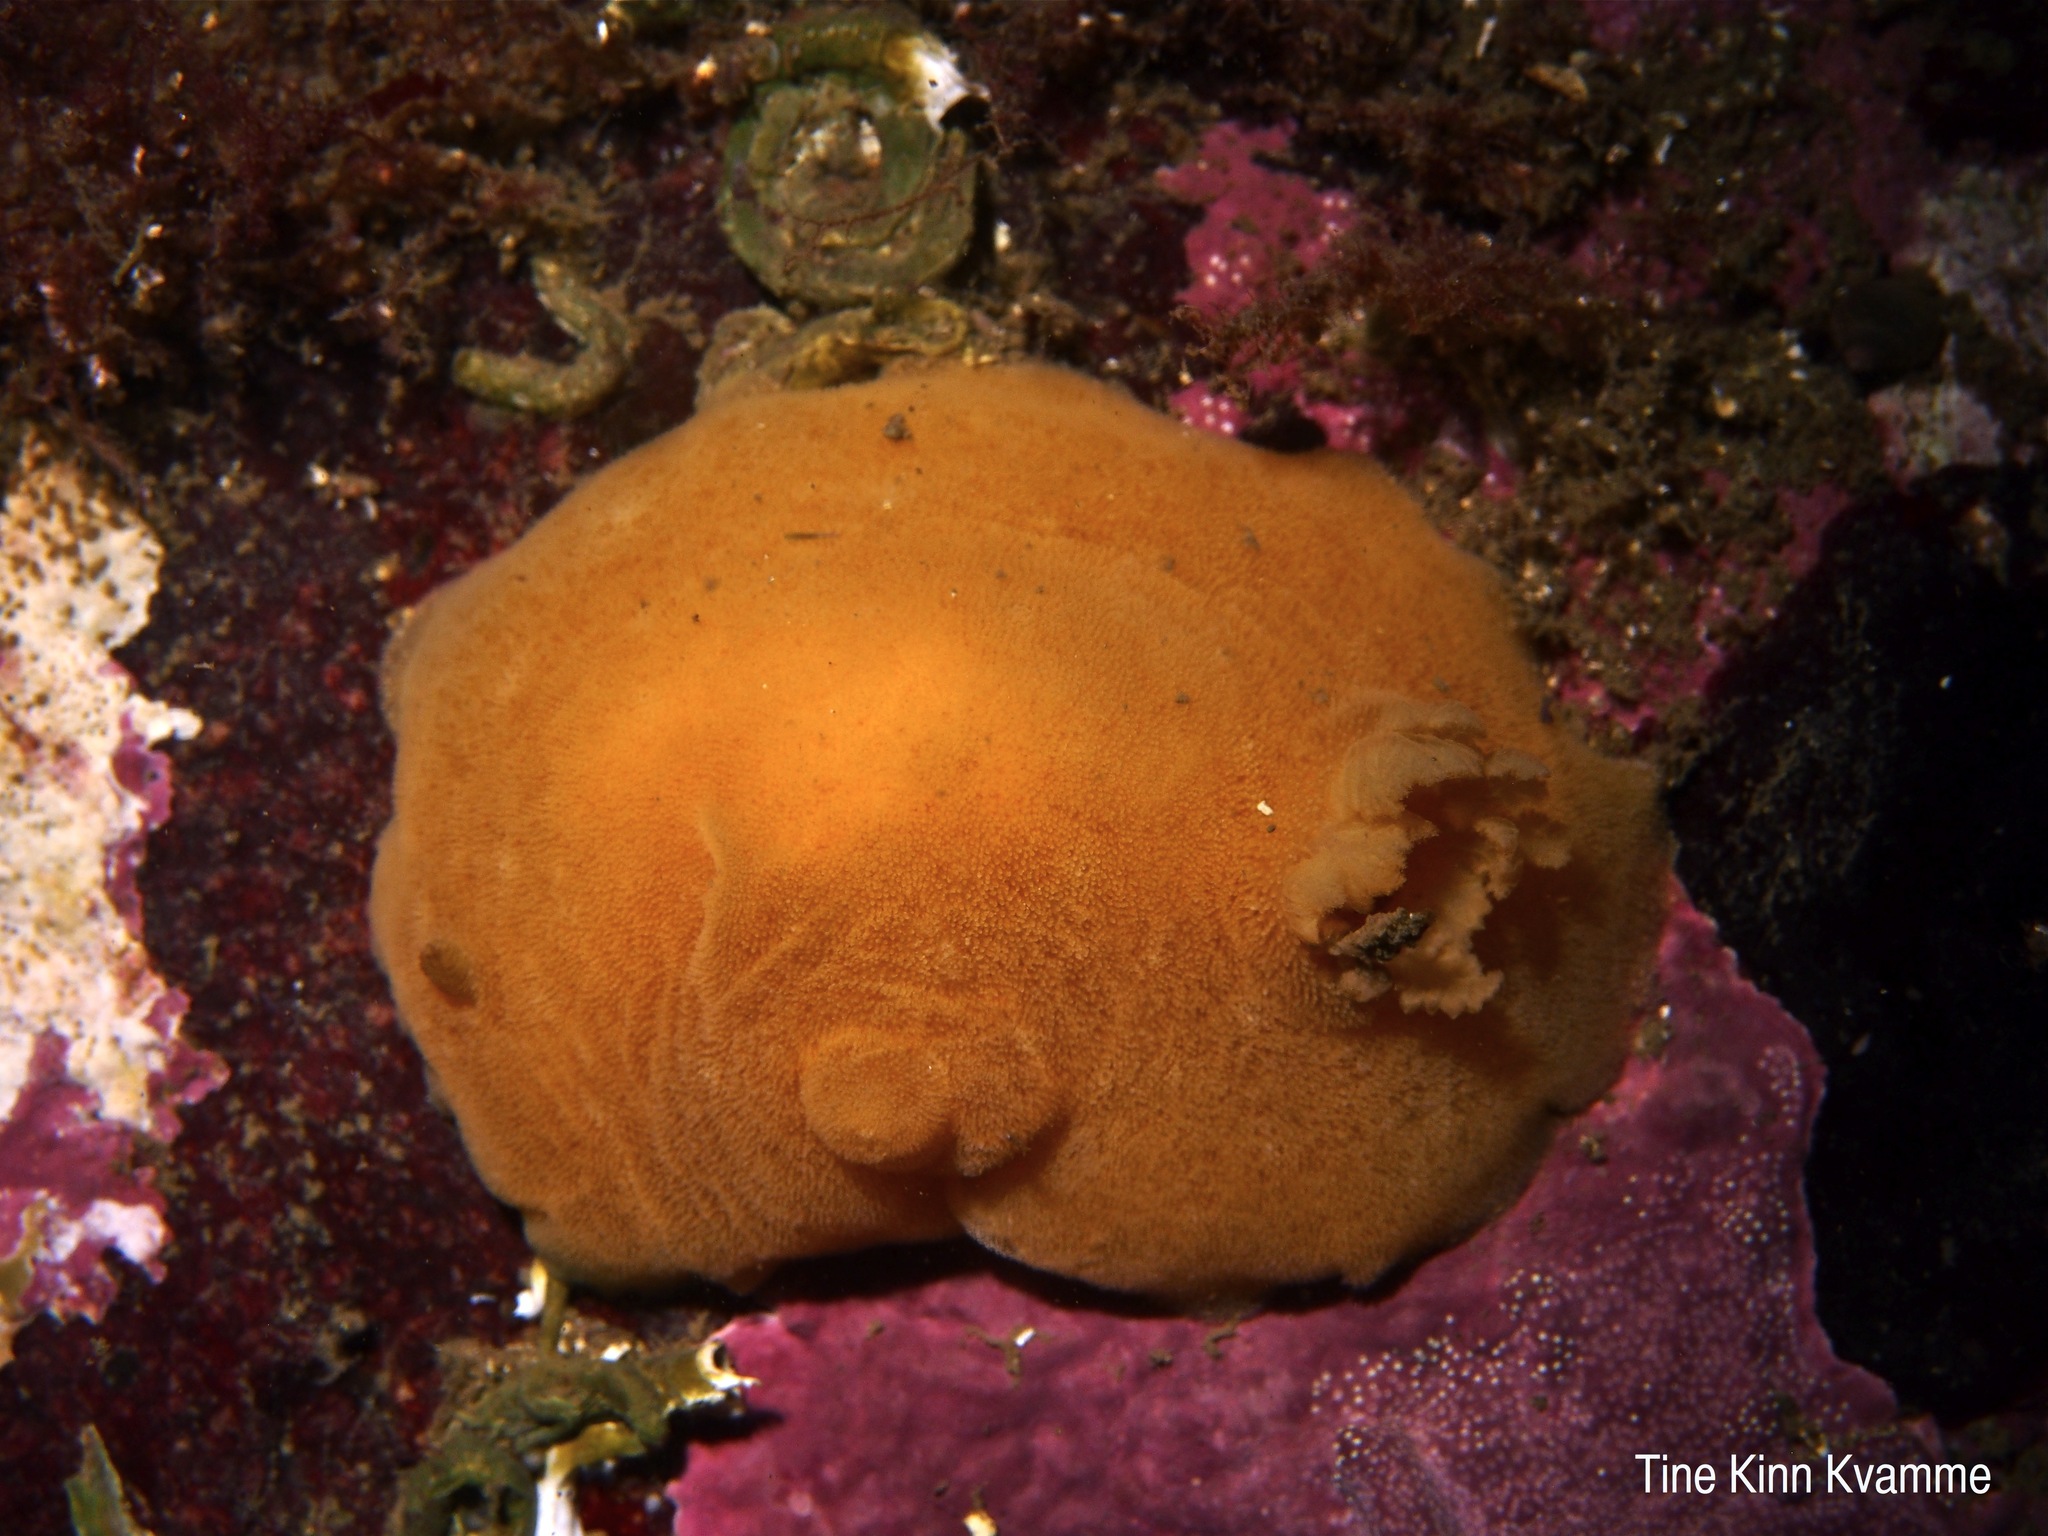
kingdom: Animalia
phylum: Mollusca
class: Gastropoda
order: Nudibranchia
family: Discodorididae
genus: Jorunna
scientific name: Jorunna tomentosa
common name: Grey sea slug
